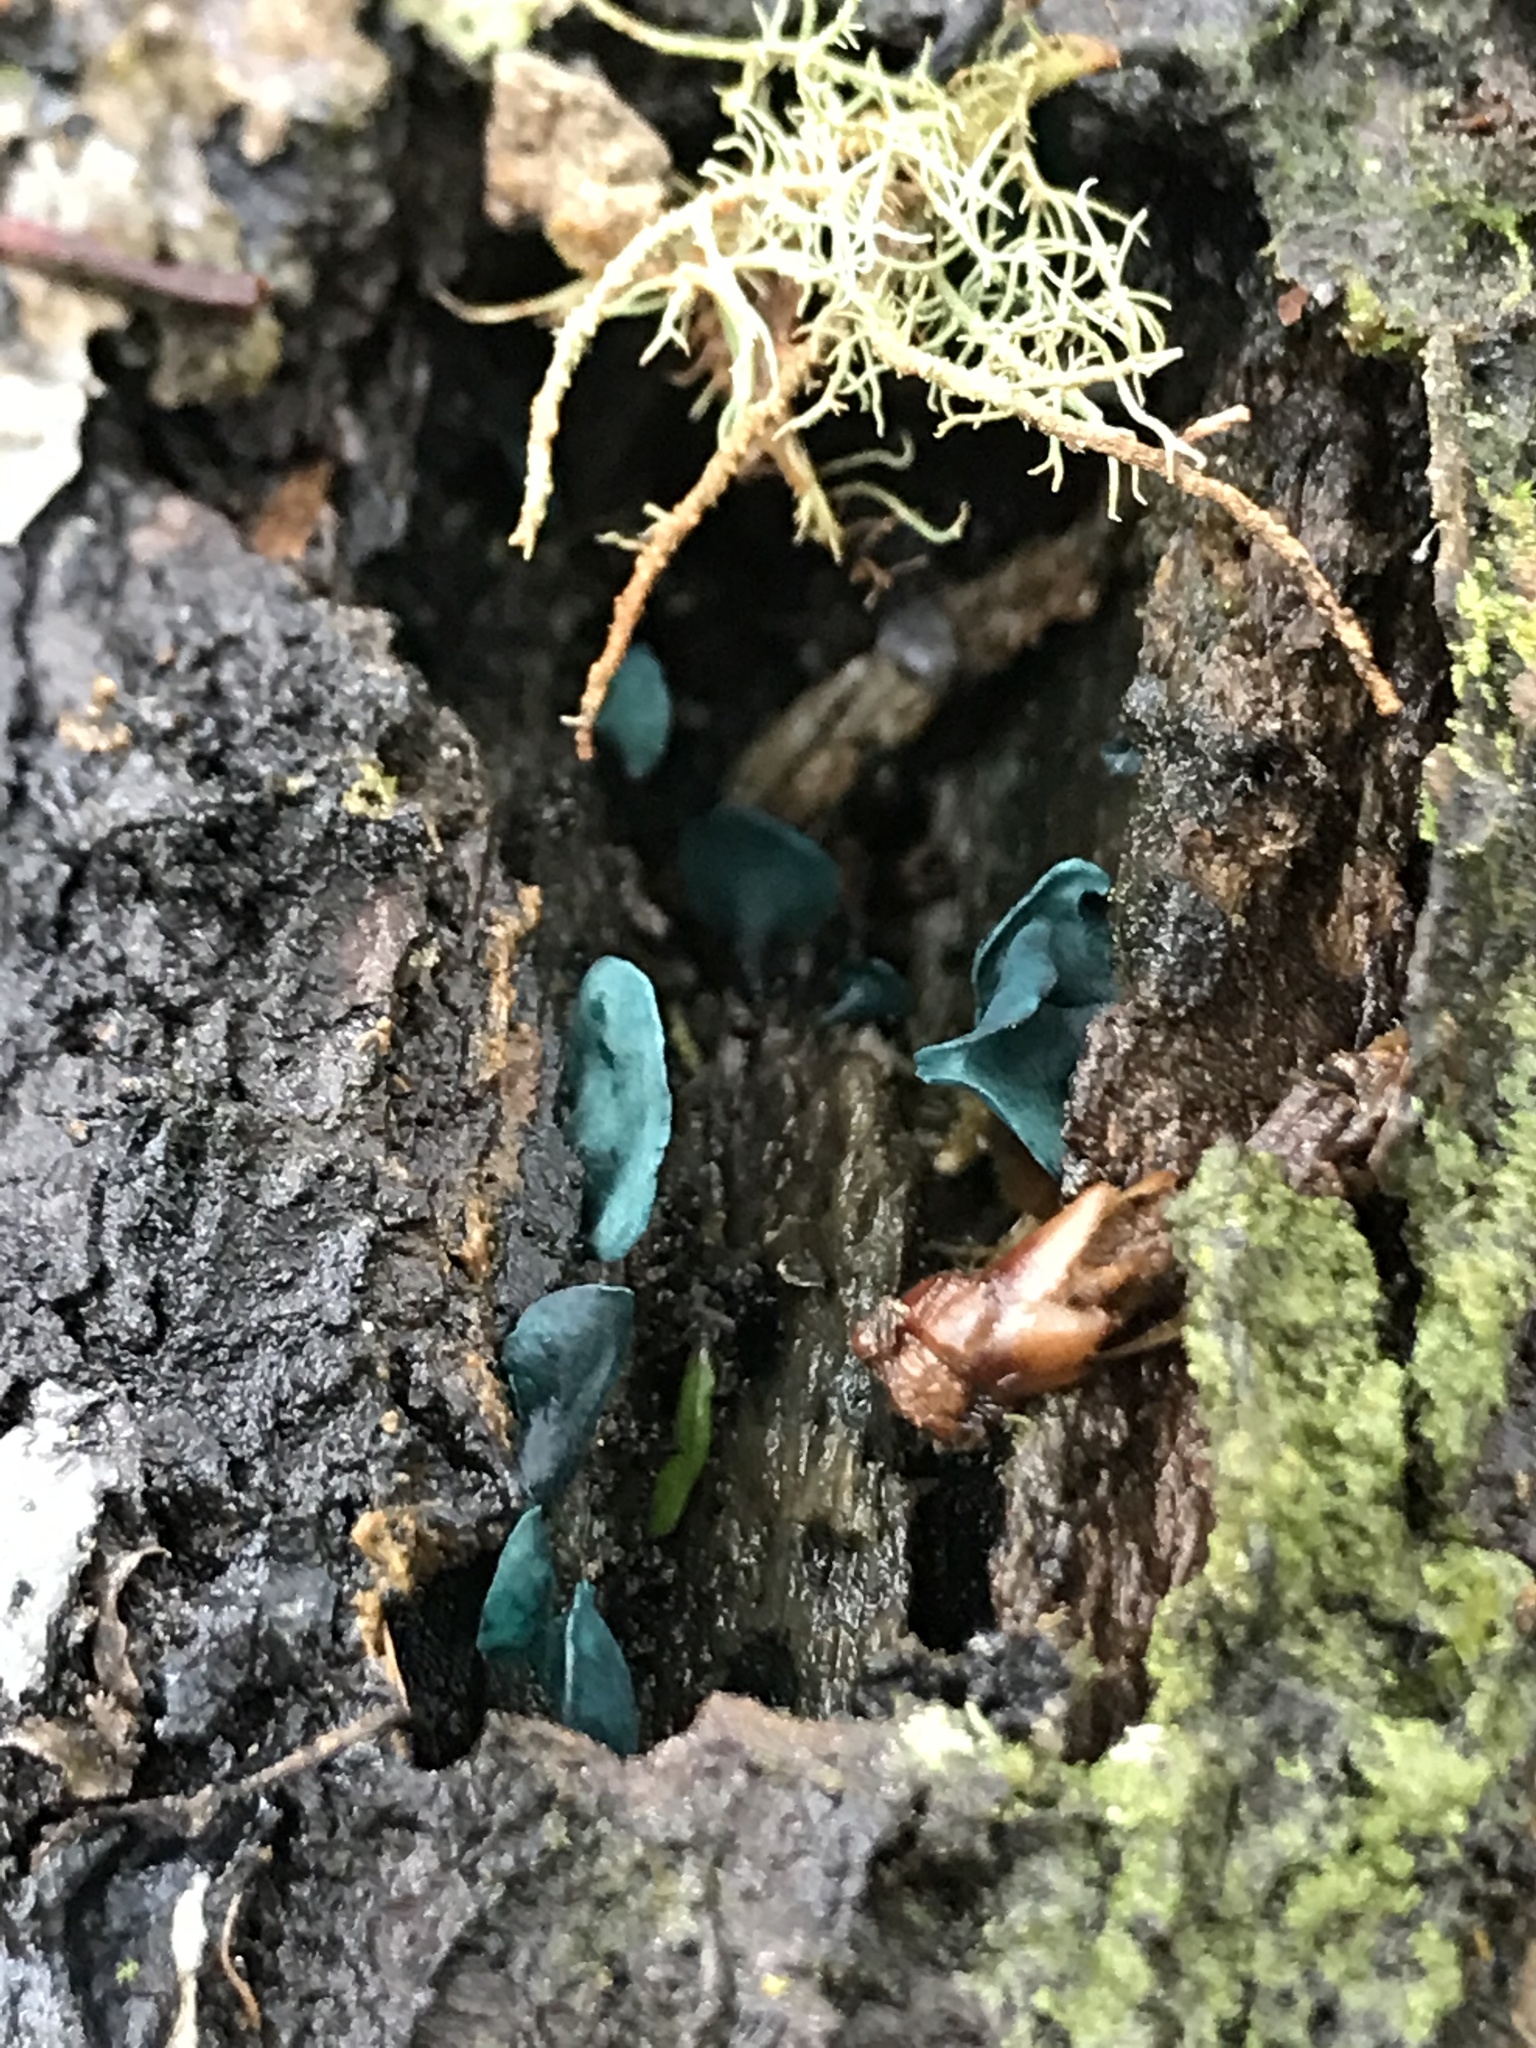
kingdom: Fungi
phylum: Ascomycota
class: Leotiomycetes
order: Helotiales
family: Chlorociboriaceae
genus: Chlorociboria
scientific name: Chlorociboria aeruginascens
